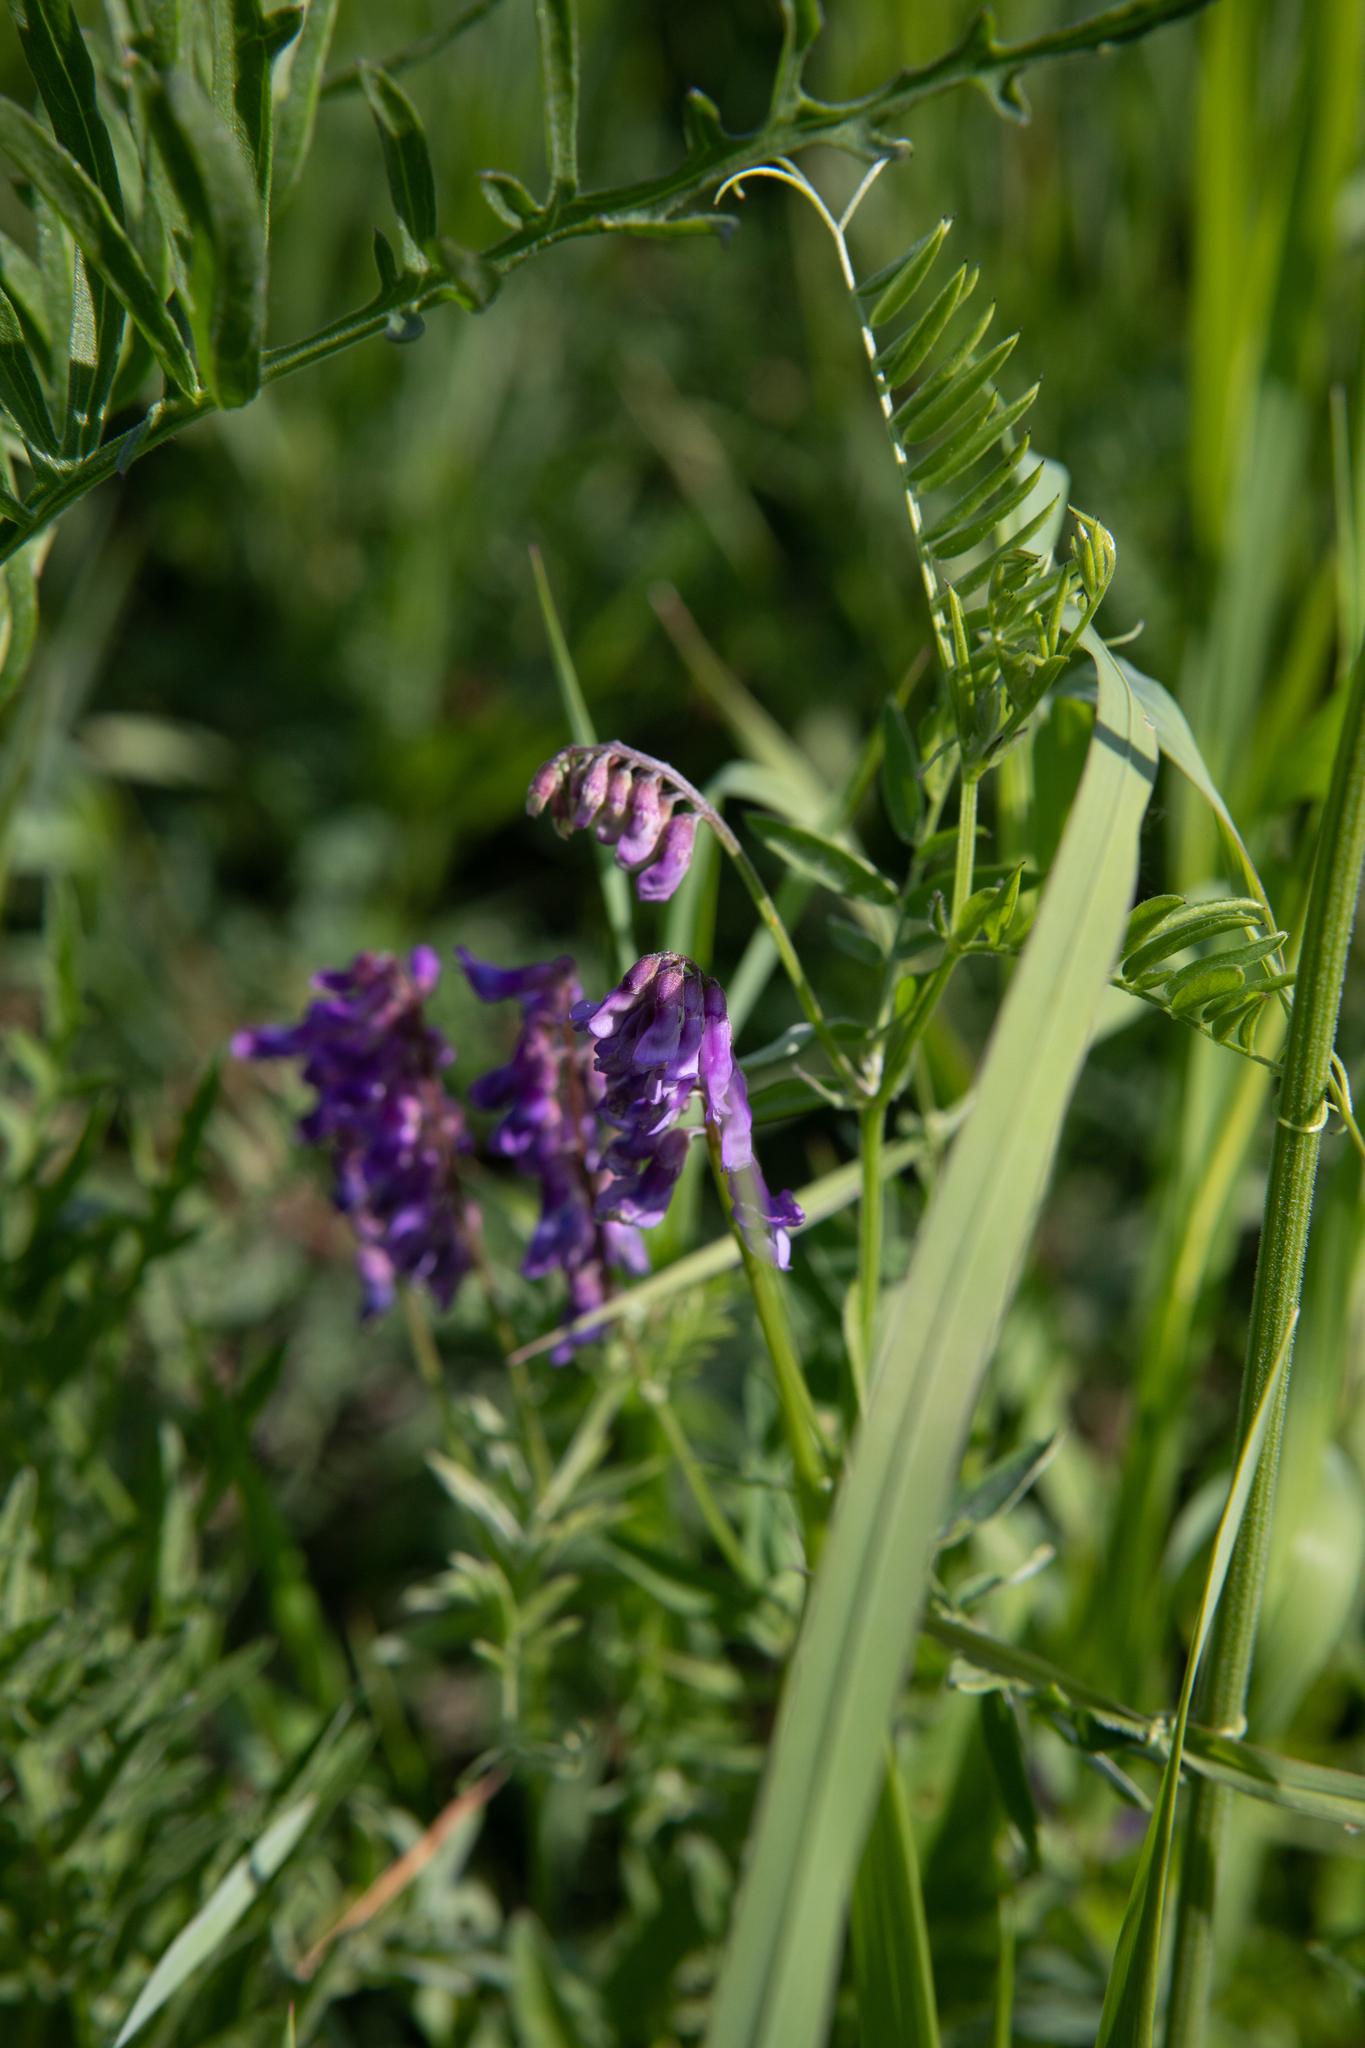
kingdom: Plantae
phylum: Tracheophyta
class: Magnoliopsida
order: Fabales
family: Fabaceae
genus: Vicia
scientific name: Vicia cracca
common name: Bird vetch
